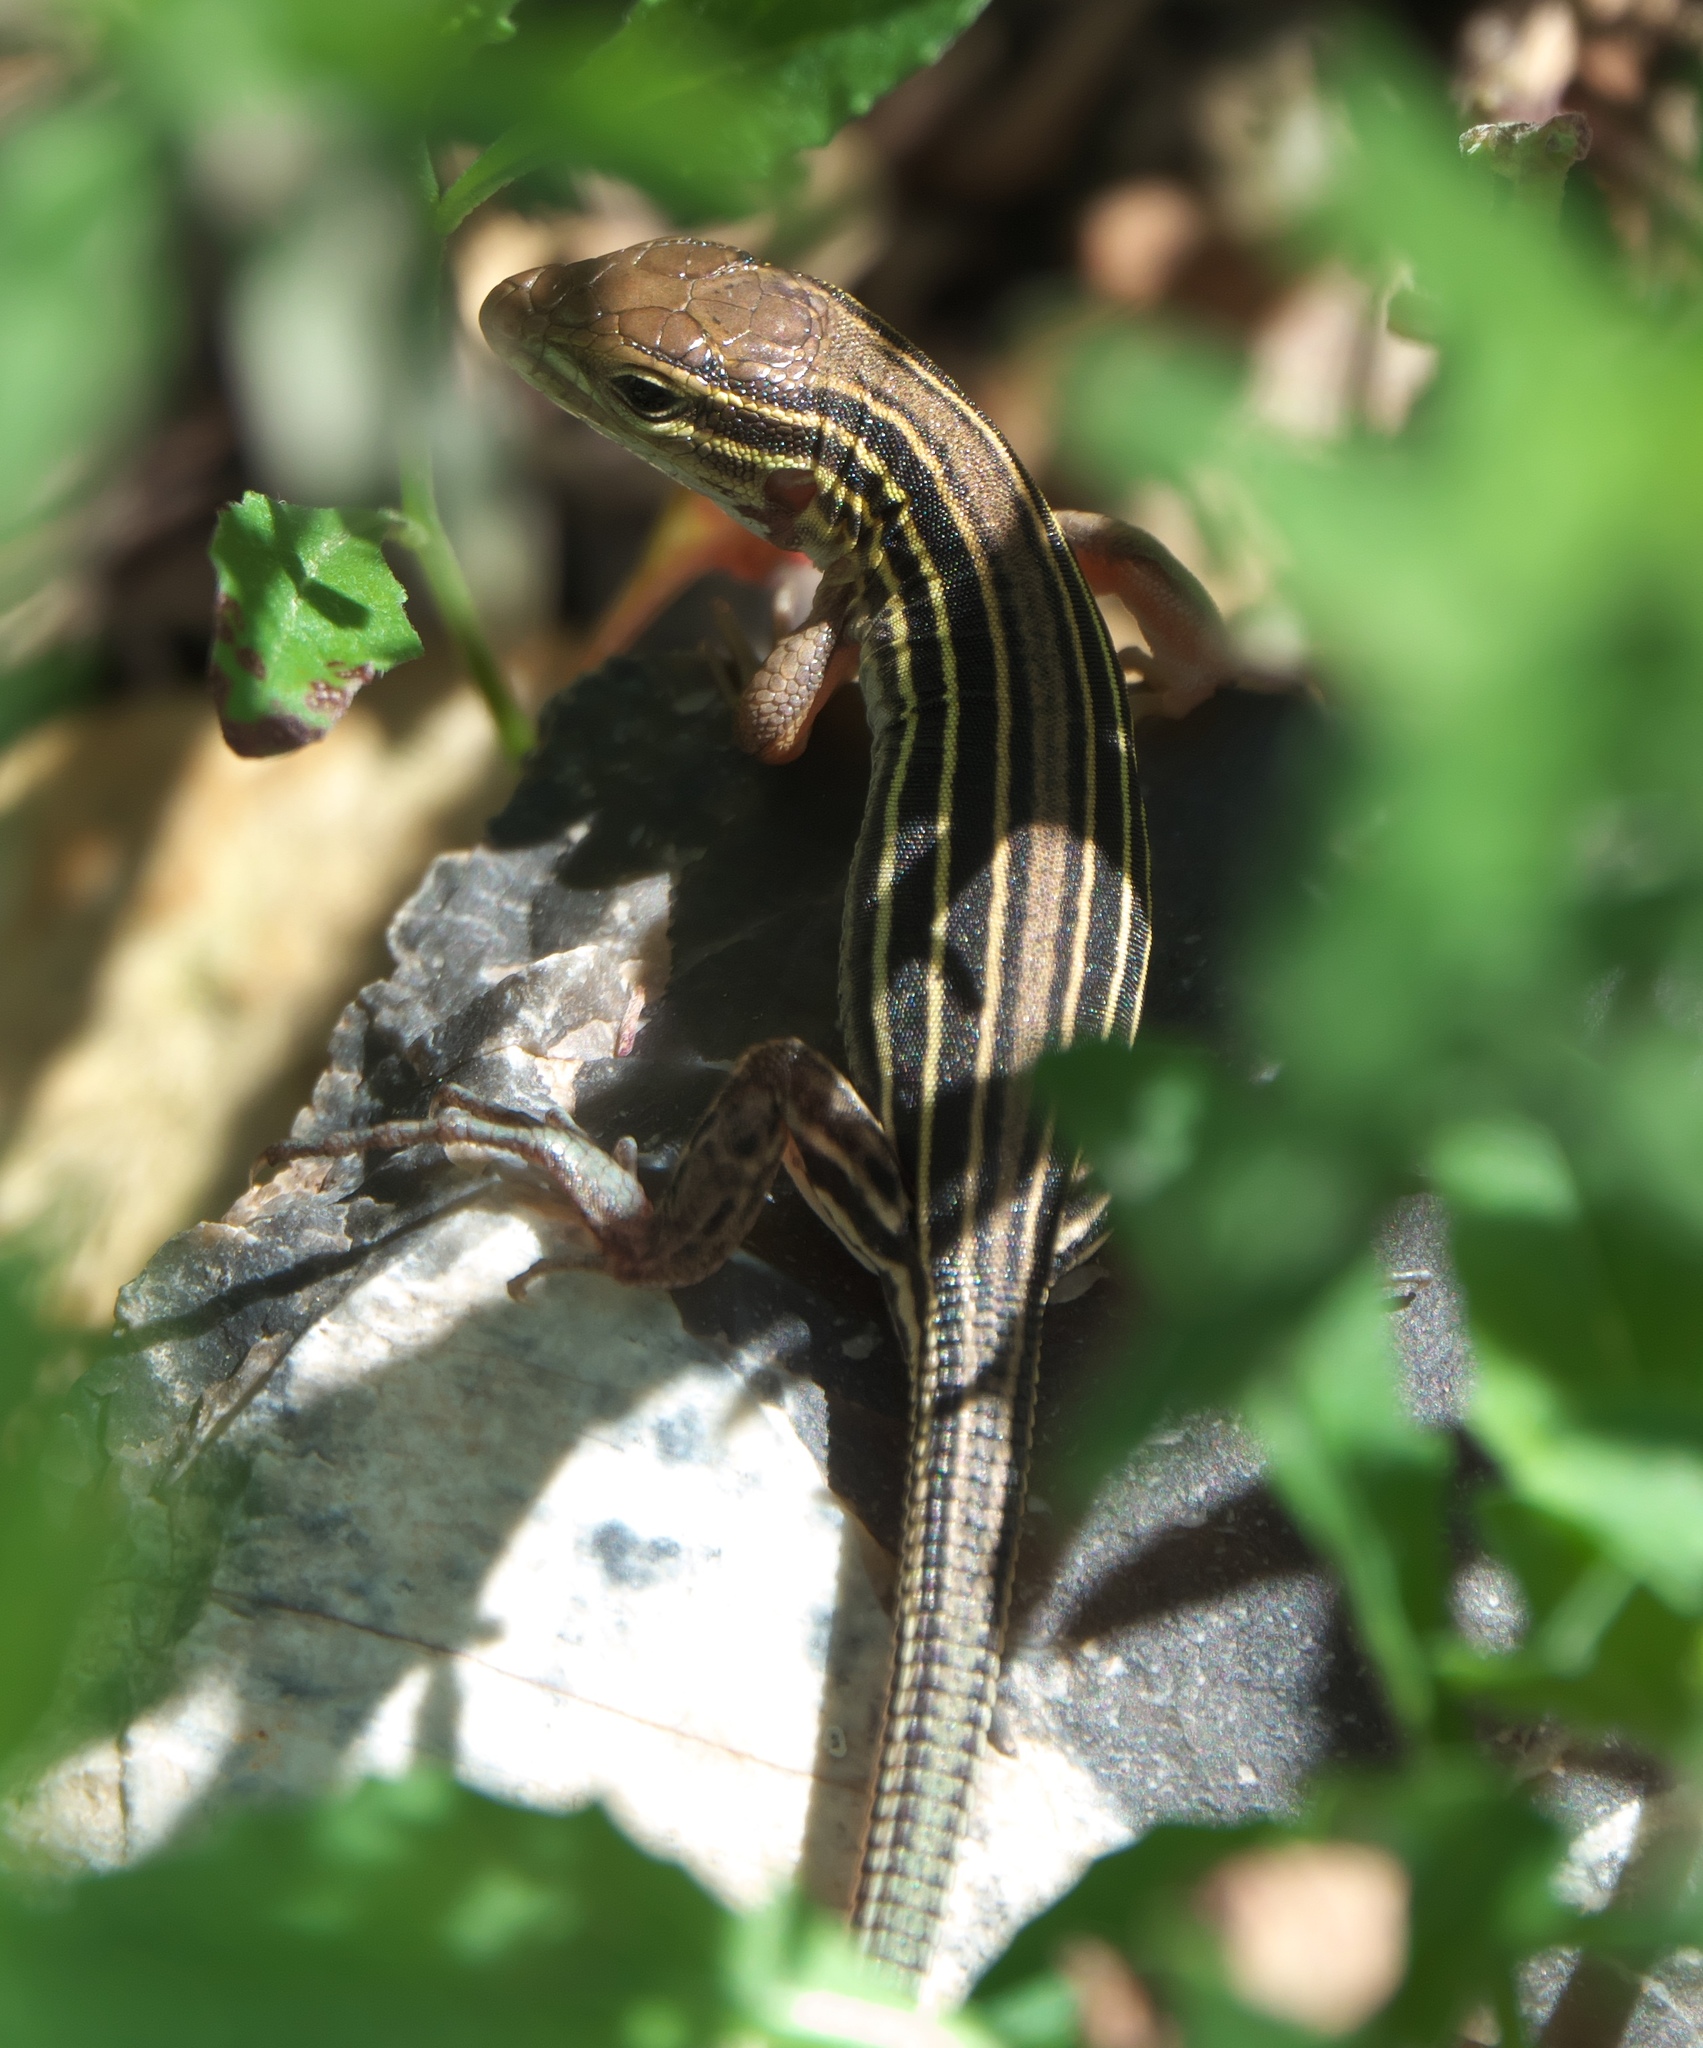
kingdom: Animalia
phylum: Chordata
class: Squamata
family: Teiidae
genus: Aspidoscelis
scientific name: Aspidoscelis sexlineatus
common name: Six-lined racerunner
